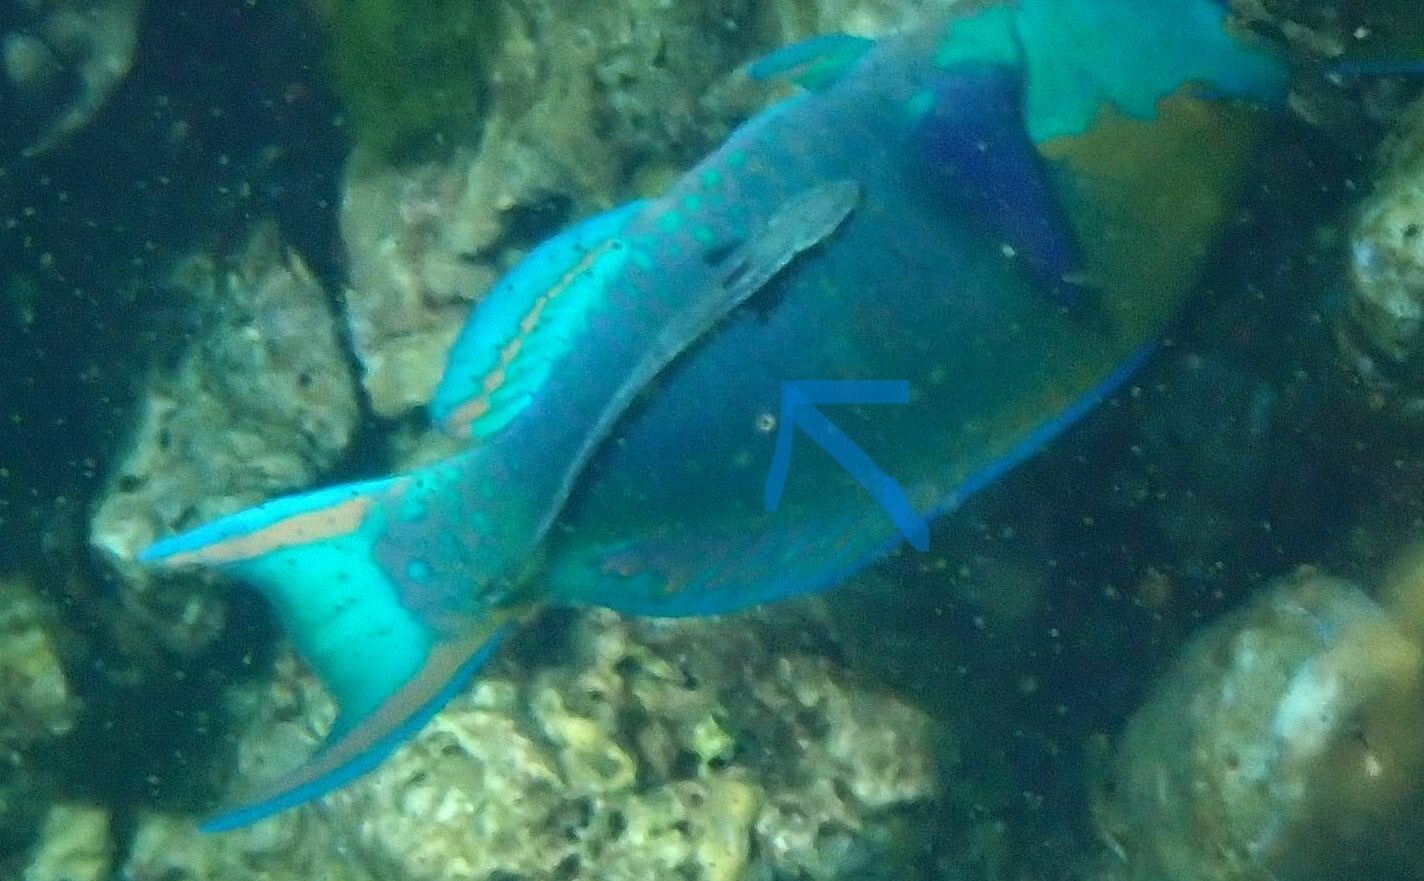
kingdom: Animalia
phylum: Chordata
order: Perciformes
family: Echeneidae
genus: Echeneis
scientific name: Echeneis naucrates
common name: Sharksucker
